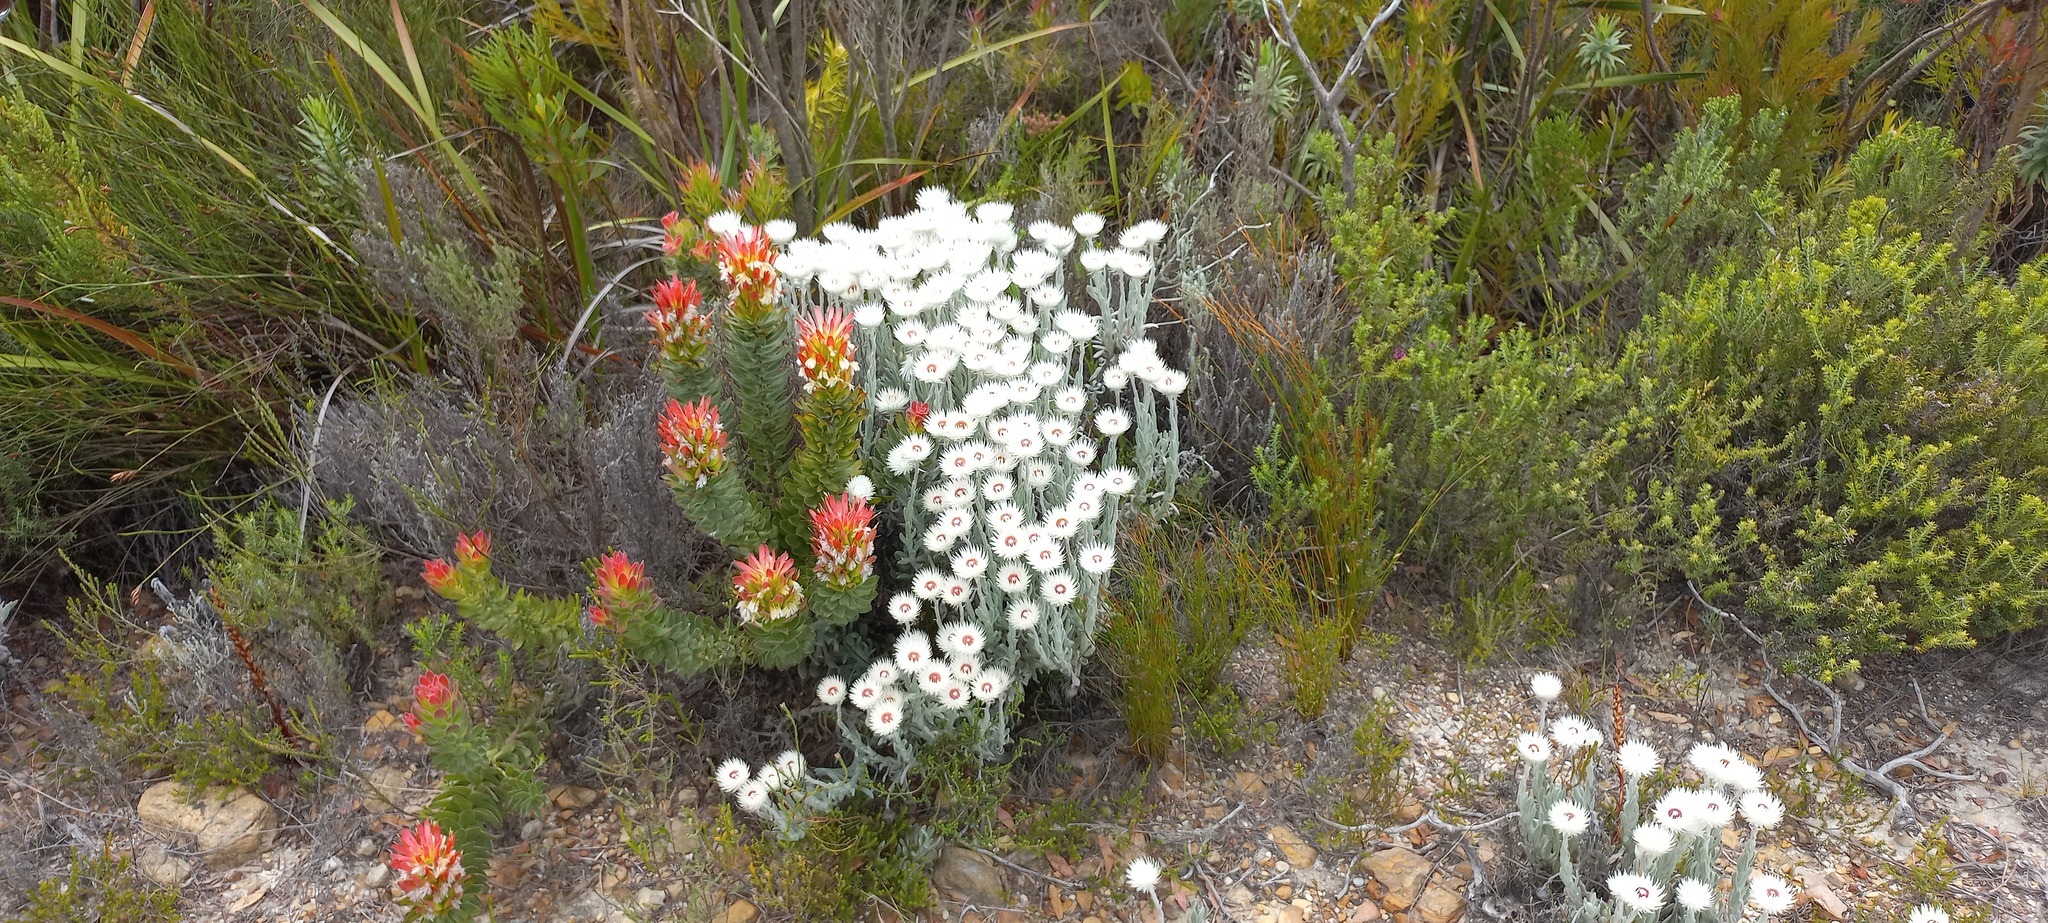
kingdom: Plantae
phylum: Tracheophyta
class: Magnoliopsida
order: Proteales
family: Proteaceae
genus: Mimetes
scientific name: Mimetes cucullatus
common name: Common pagoda
